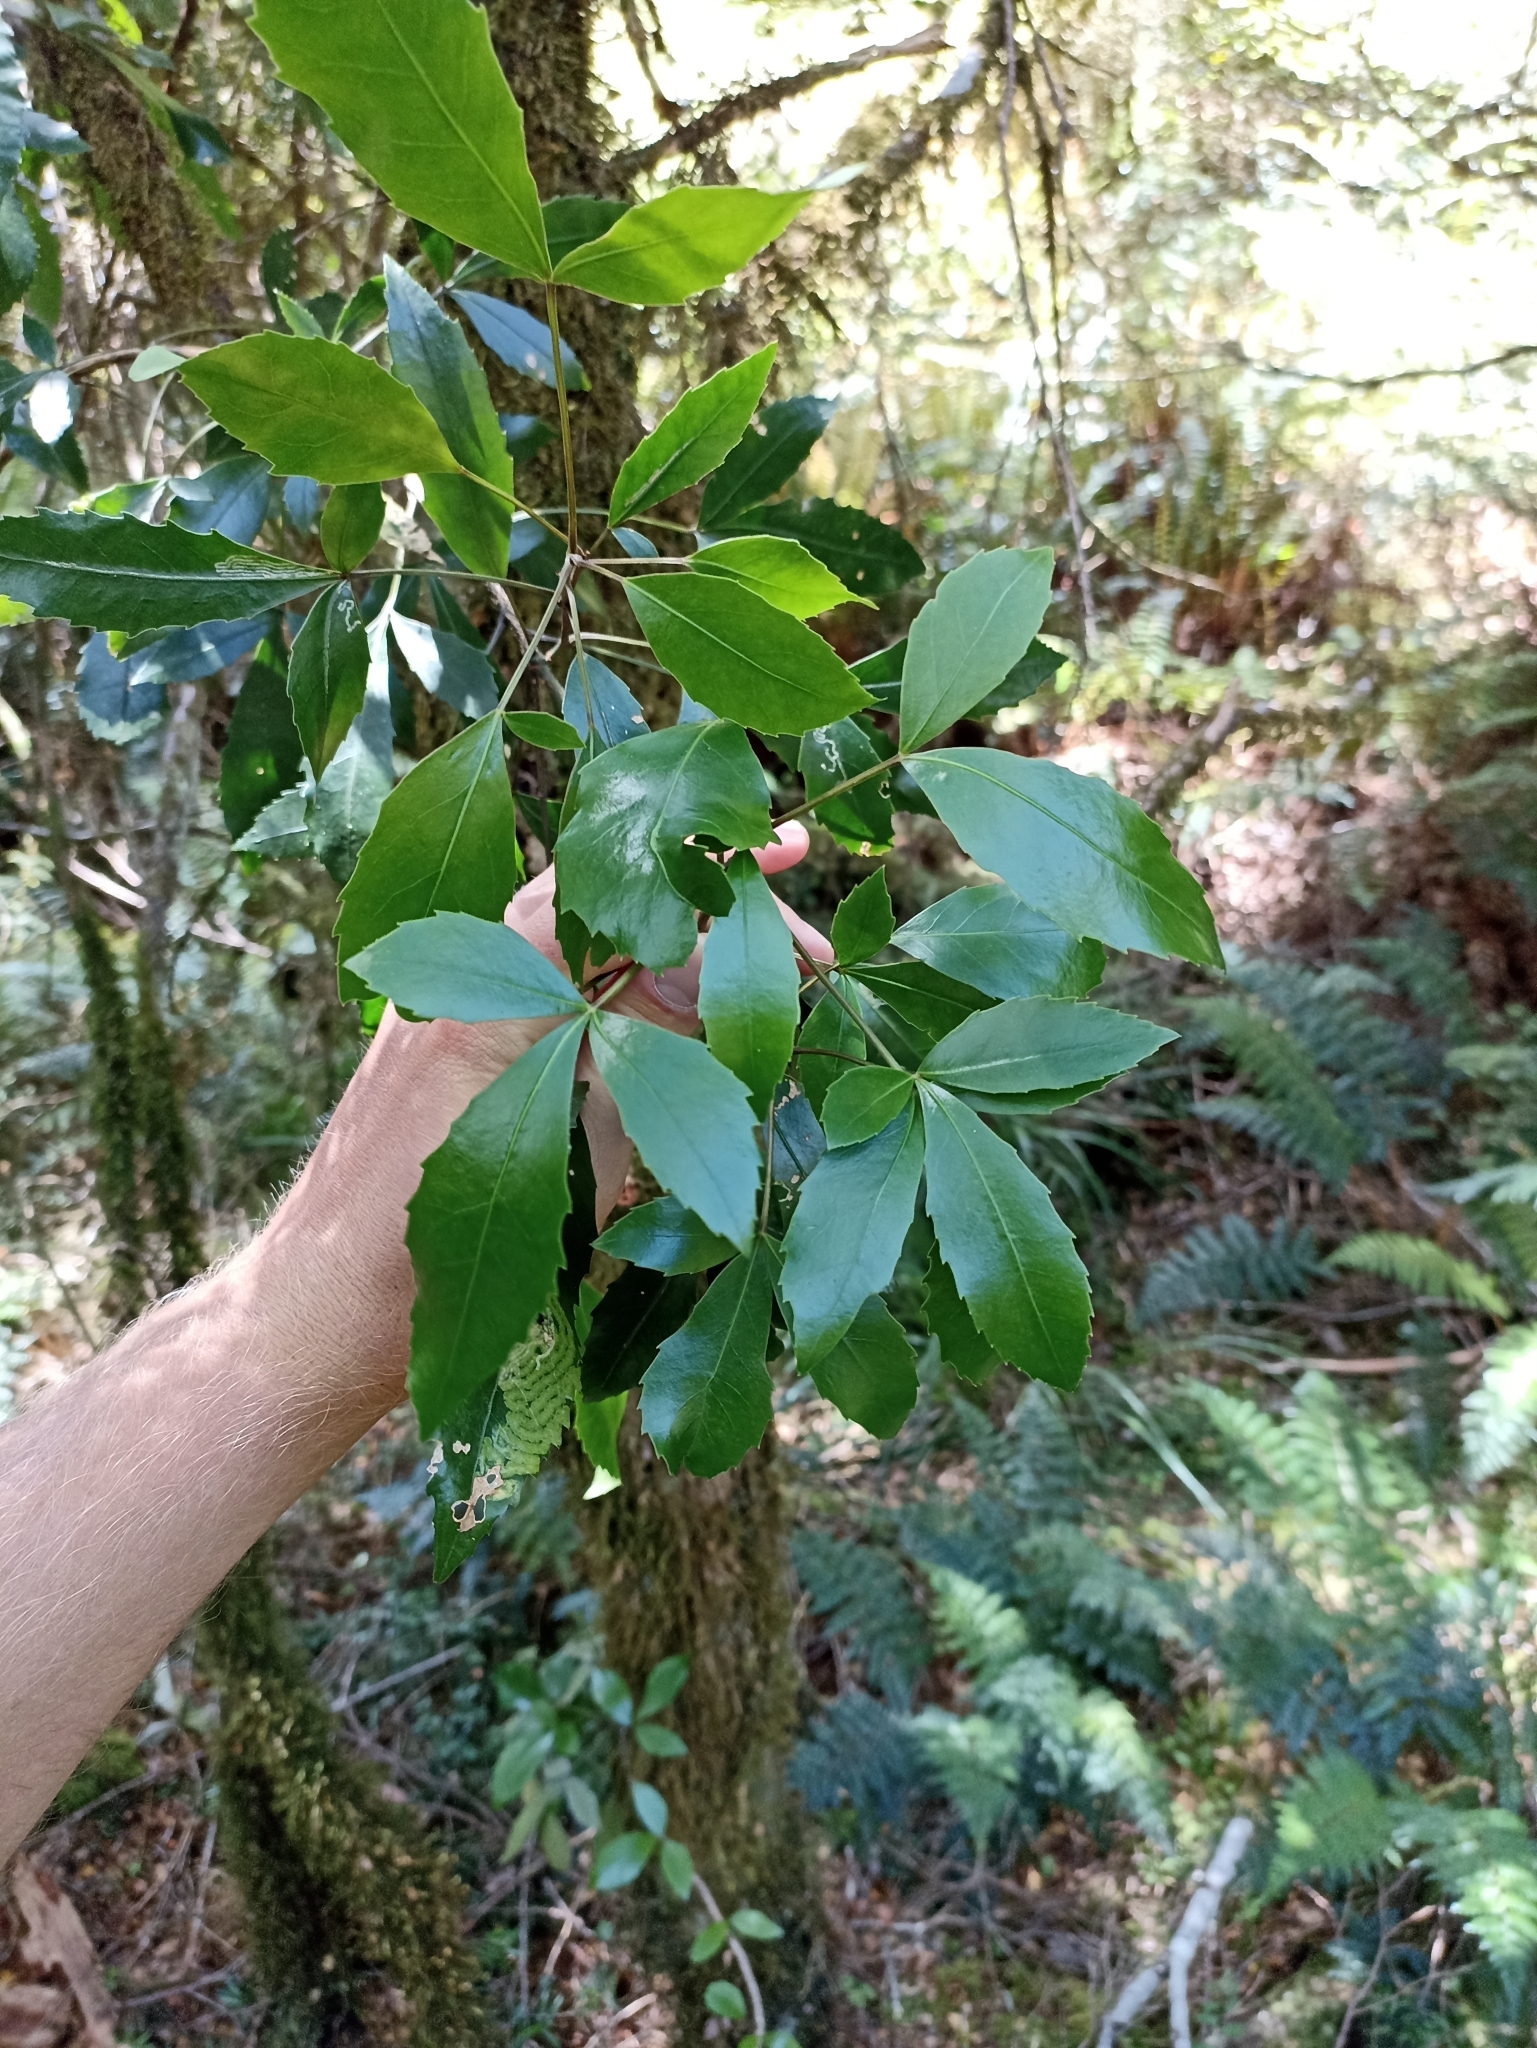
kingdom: Plantae
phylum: Tracheophyta
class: Magnoliopsida
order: Apiales
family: Araliaceae
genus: Neopanax
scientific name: Neopanax colensoi
